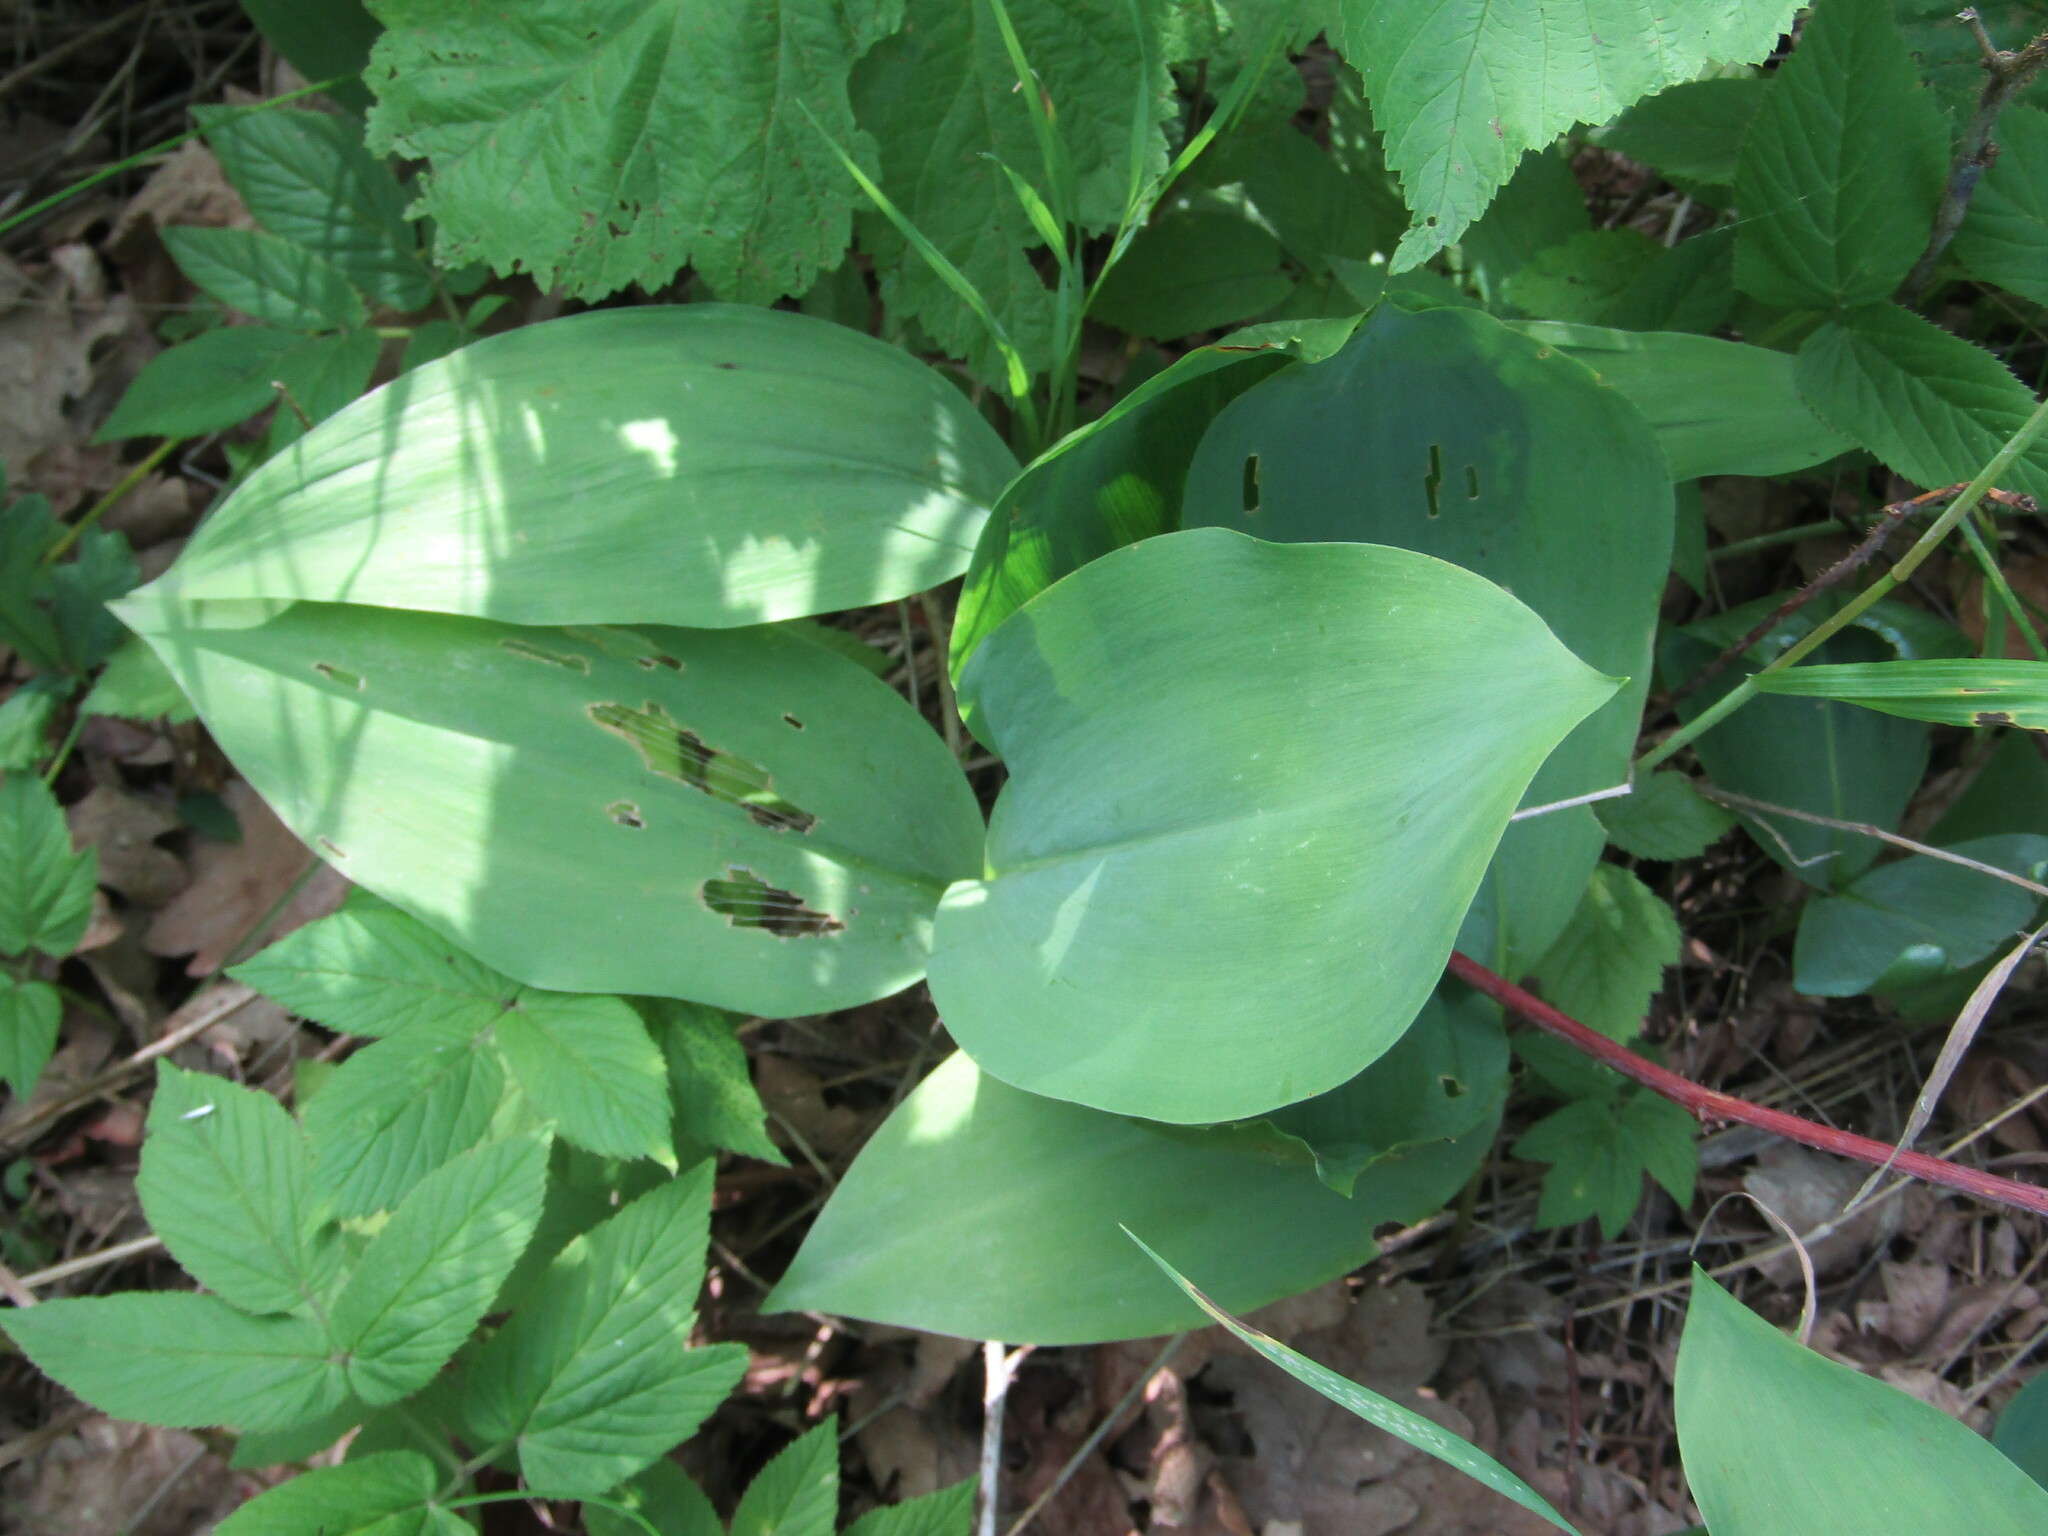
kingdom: Plantae
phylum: Tracheophyta
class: Liliopsida
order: Asparagales
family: Asparagaceae
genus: Convallaria
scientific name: Convallaria majalis
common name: Lily-of-the-valley
